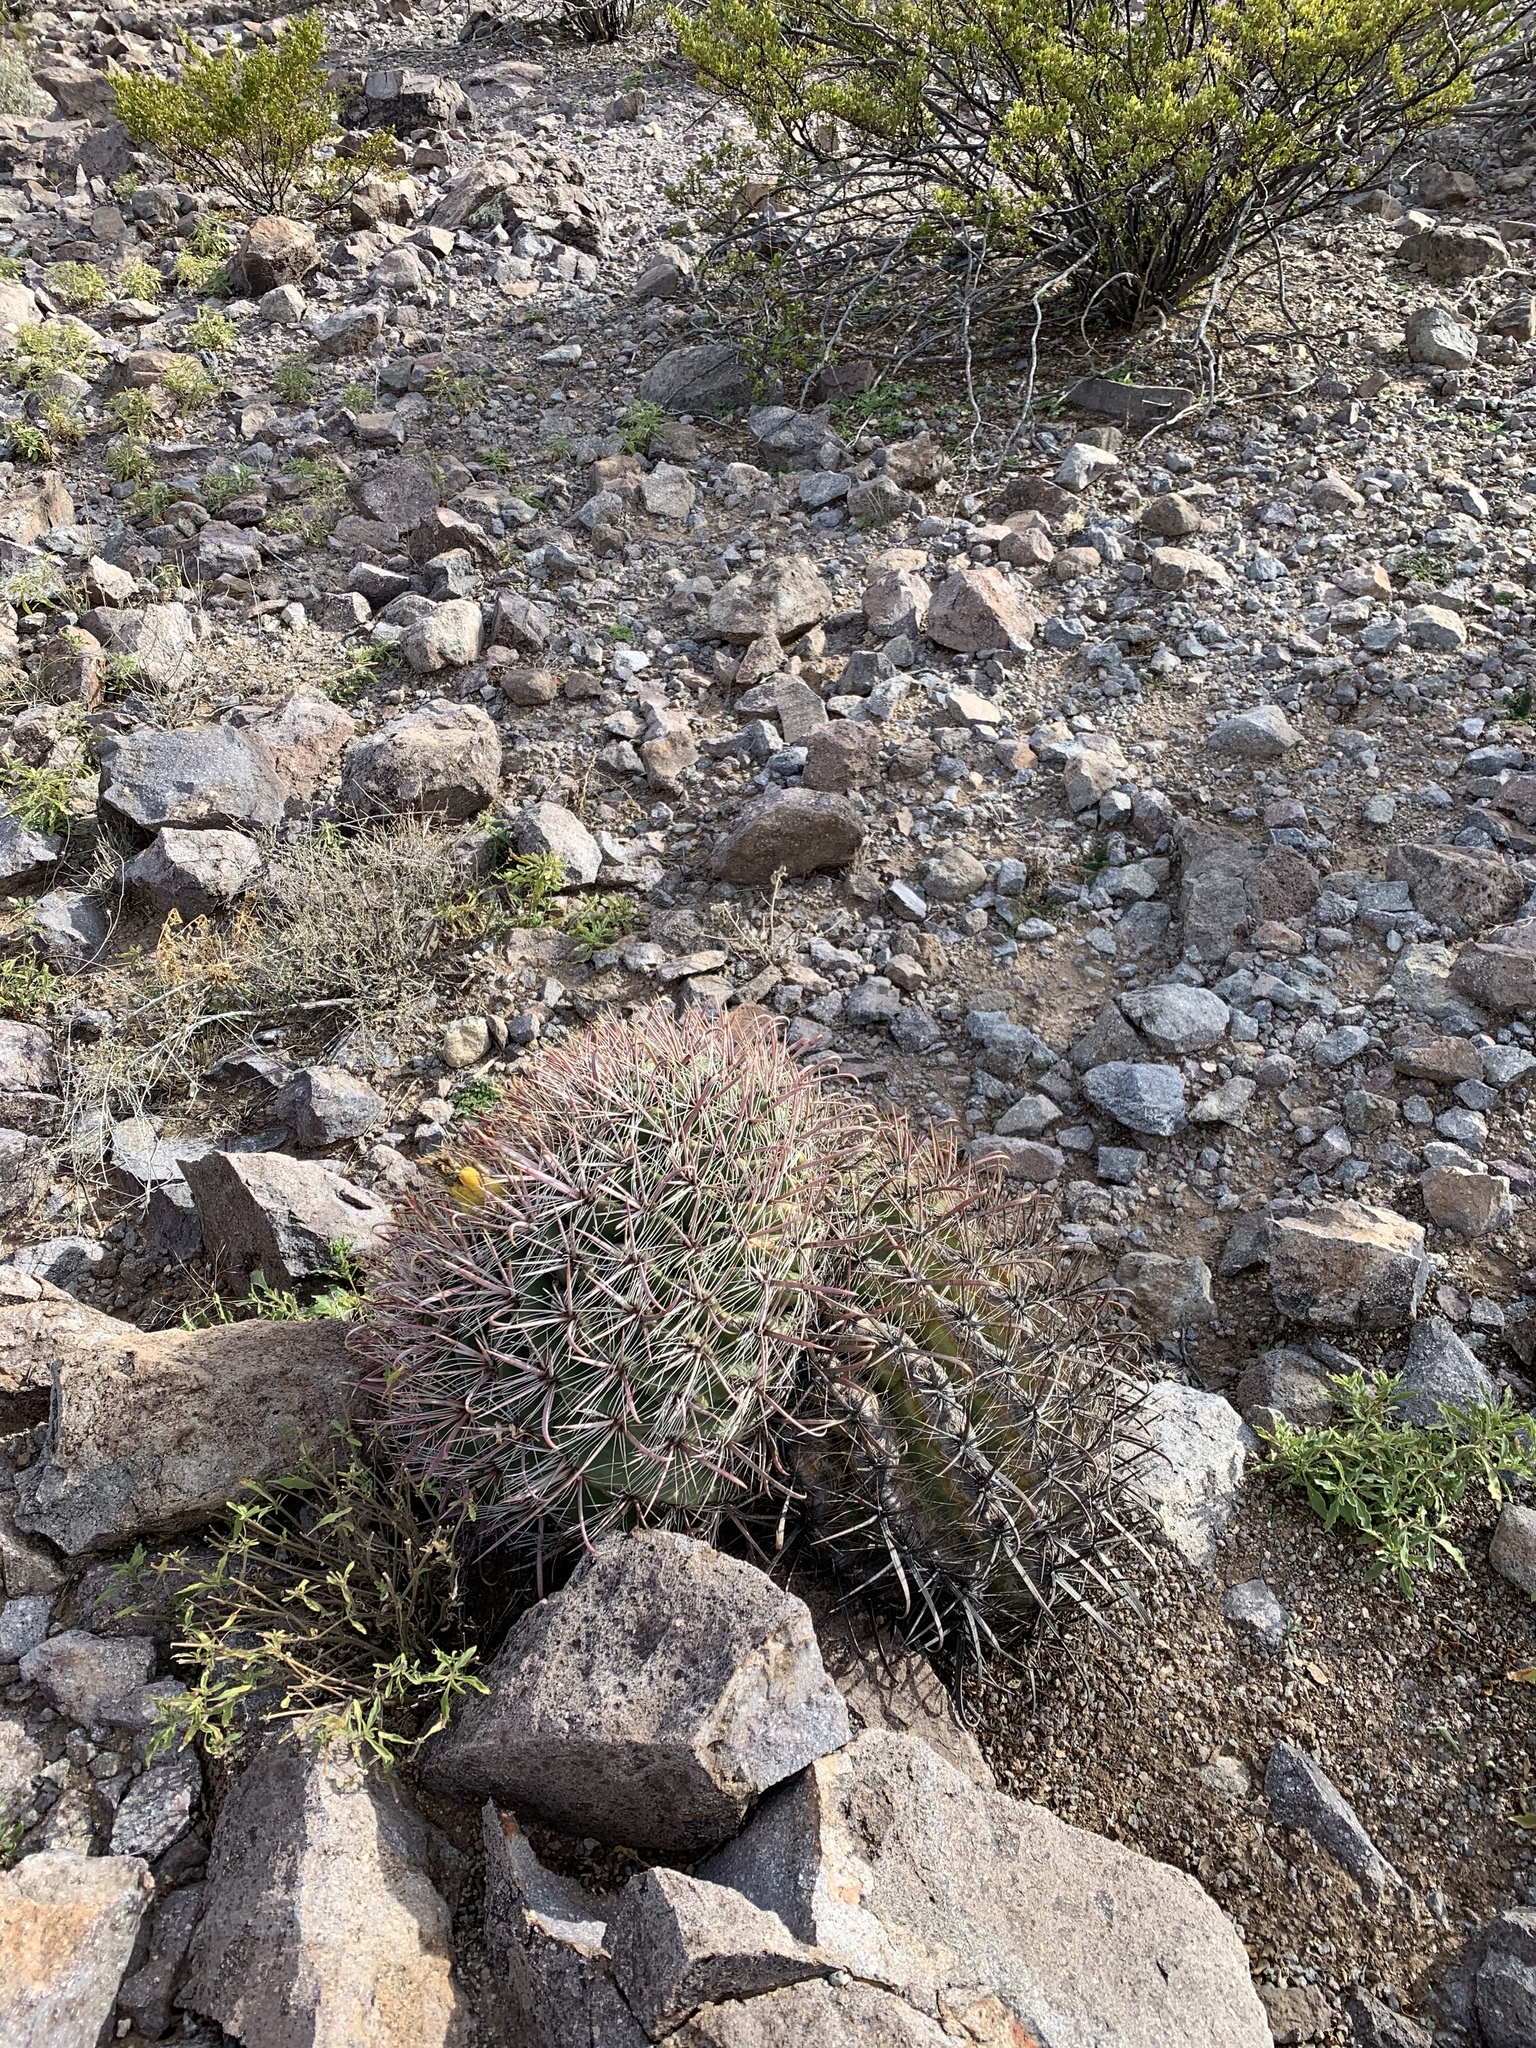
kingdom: Plantae
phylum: Tracheophyta
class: Magnoliopsida
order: Caryophyllales
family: Cactaceae
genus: Ferocactus
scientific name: Ferocactus wislizeni
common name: Candy barrel cactus
